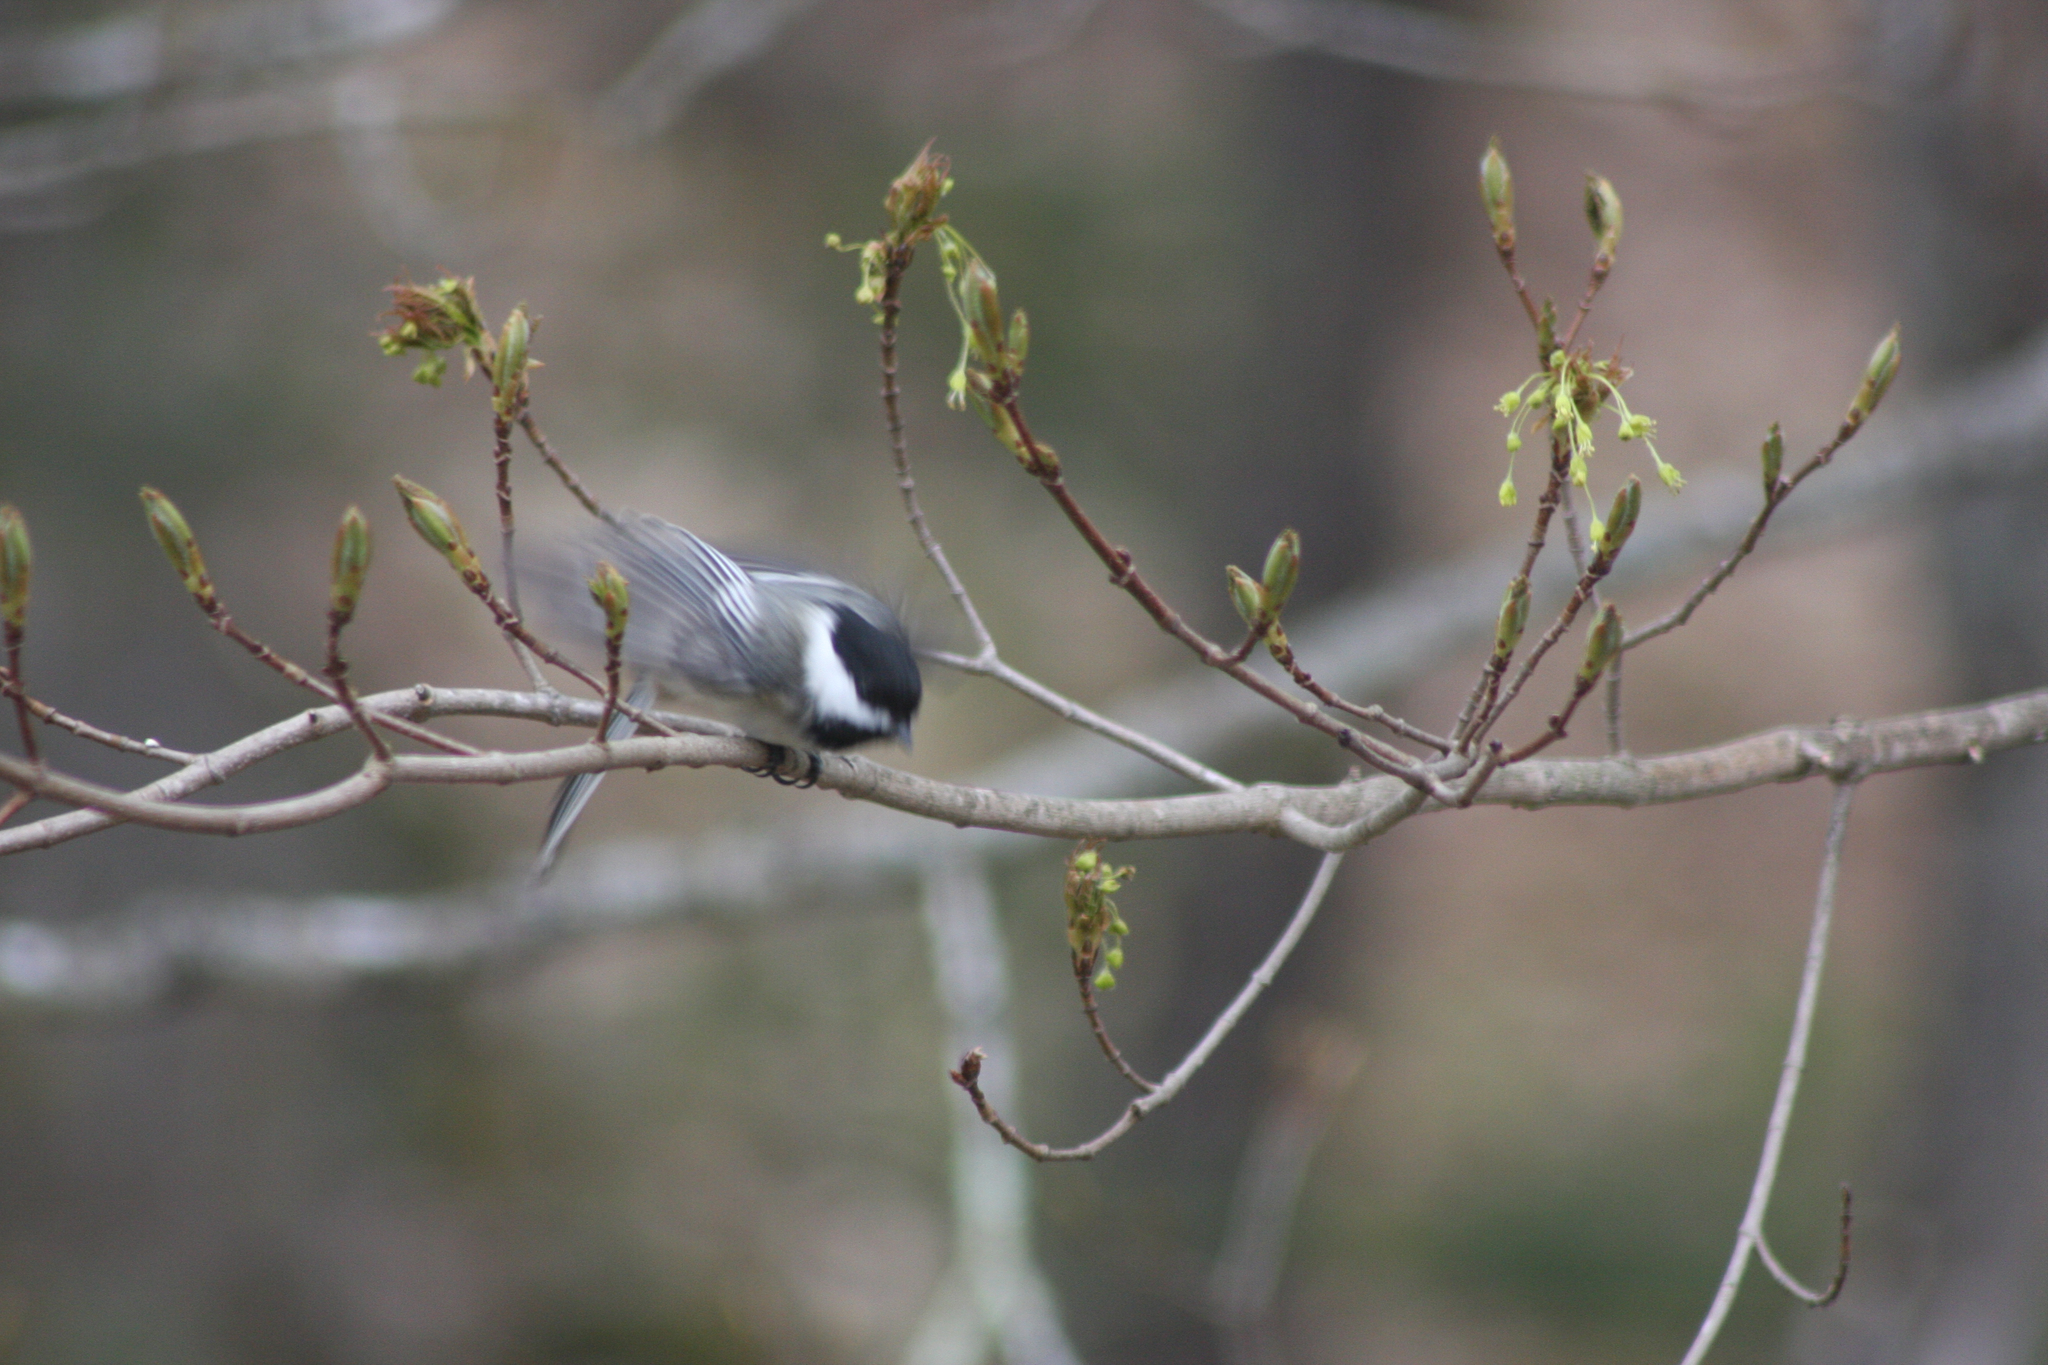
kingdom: Animalia
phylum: Chordata
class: Aves
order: Passeriformes
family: Paridae
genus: Poecile
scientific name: Poecile atricapillus
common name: Black-capped chickadee
